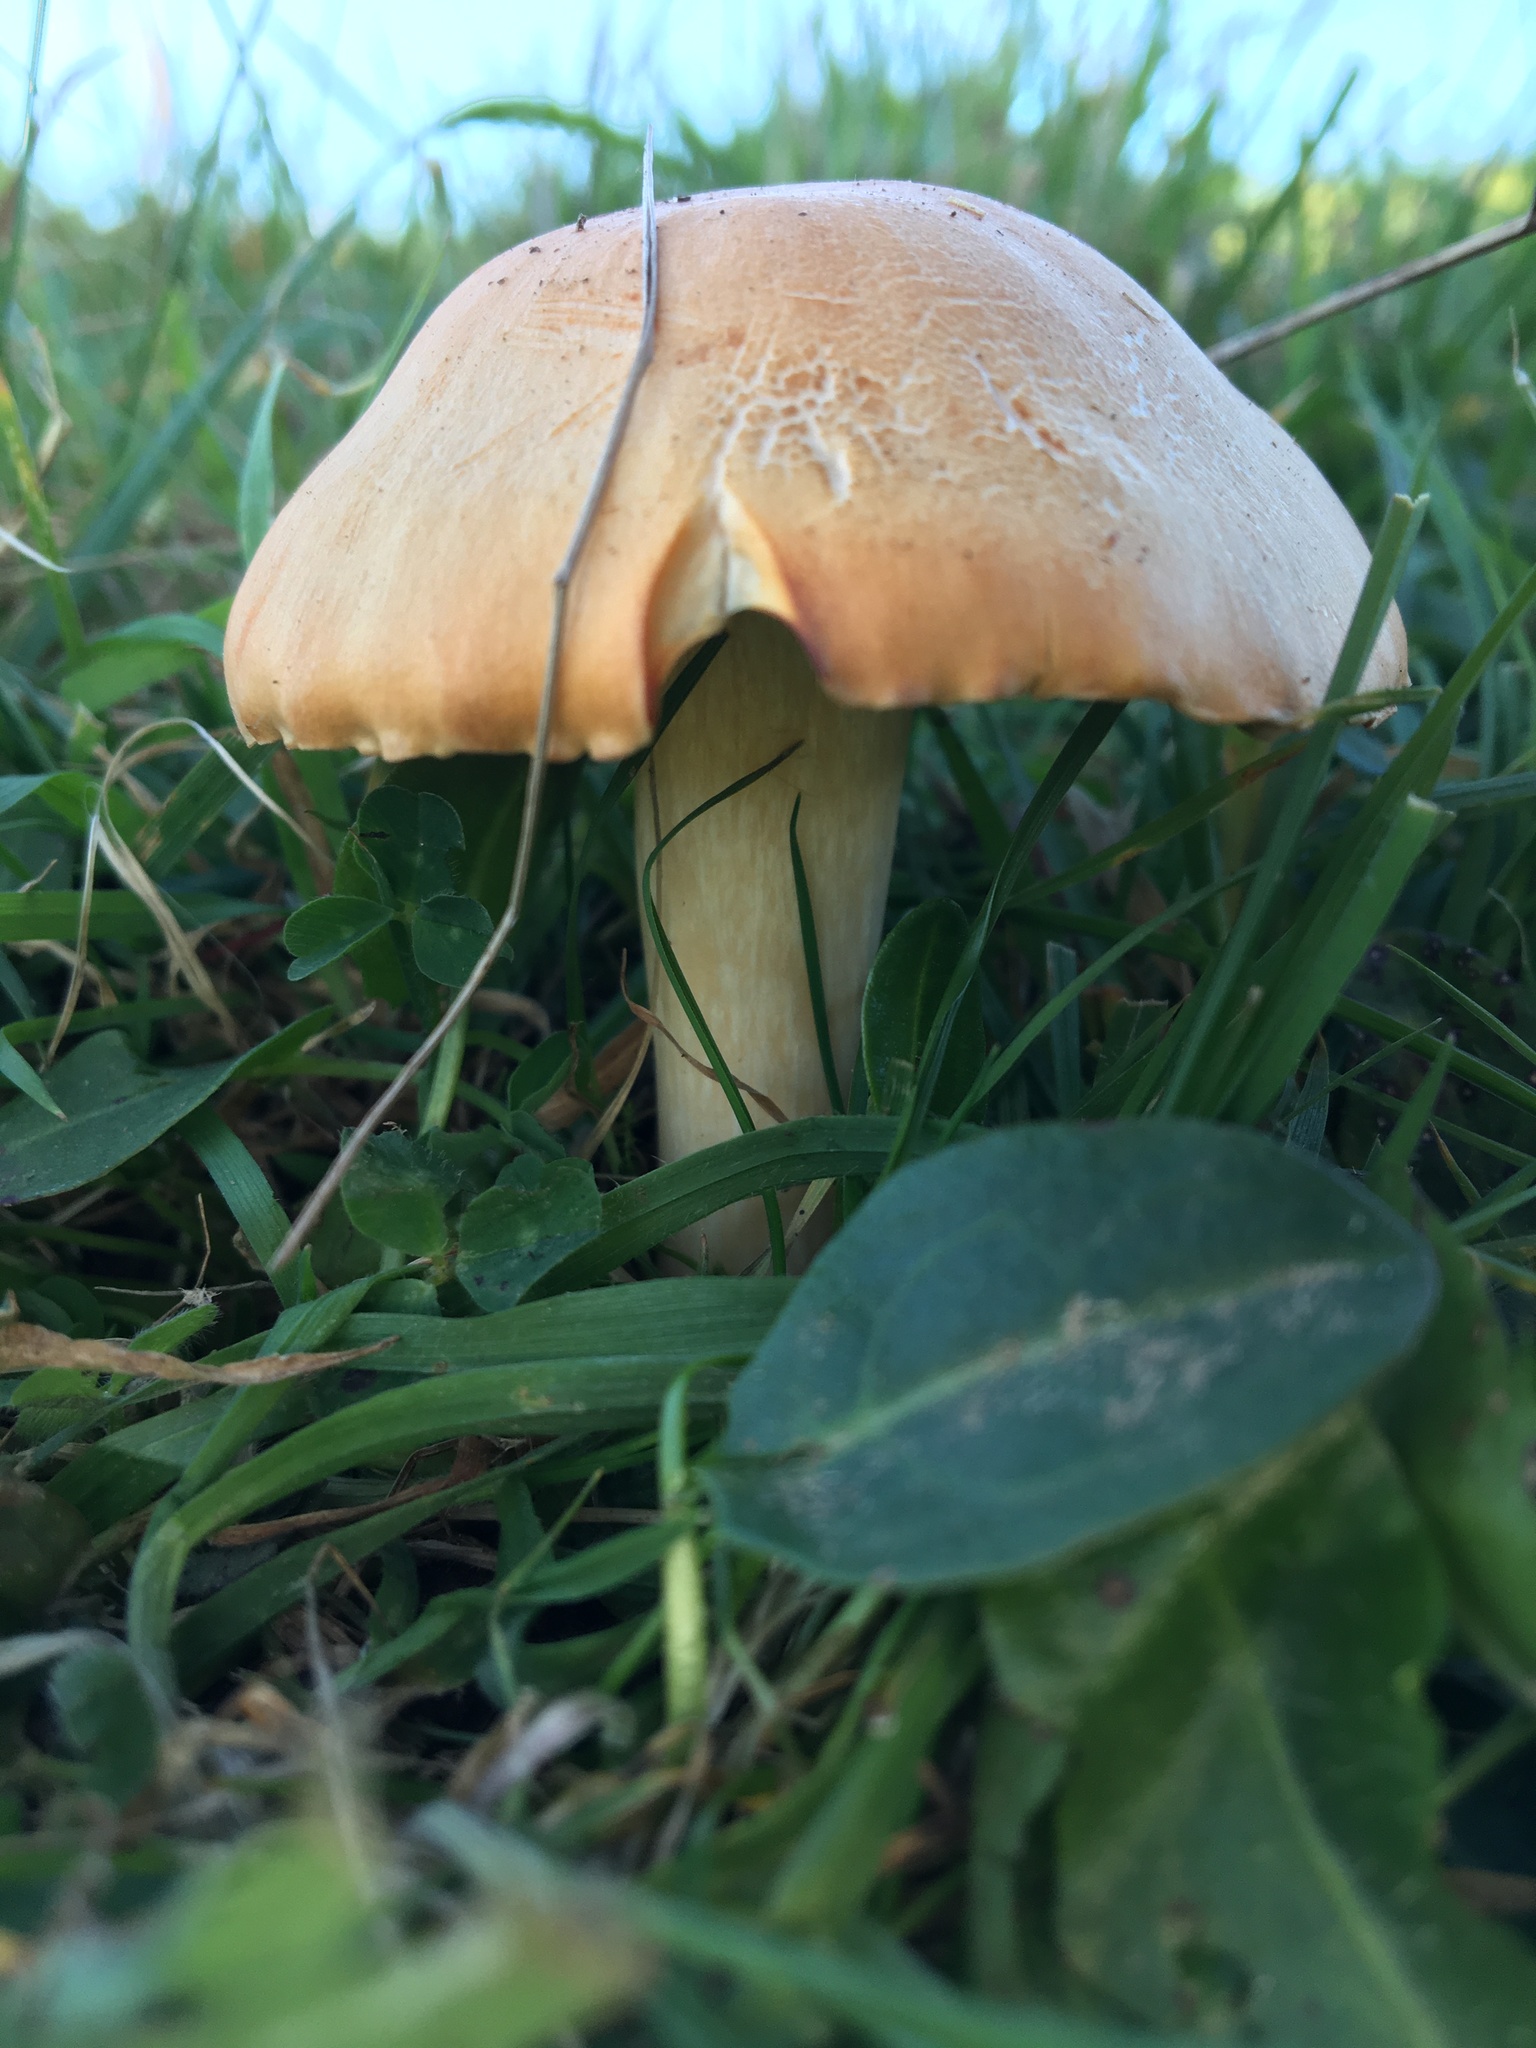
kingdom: Fungi
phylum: Basidiomycota
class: Agaricomycetes
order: Agaricales
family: Hygrophoraceae
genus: Cuphophyllus
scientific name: Cuphophyllus pratensis
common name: Meadow waxcap
